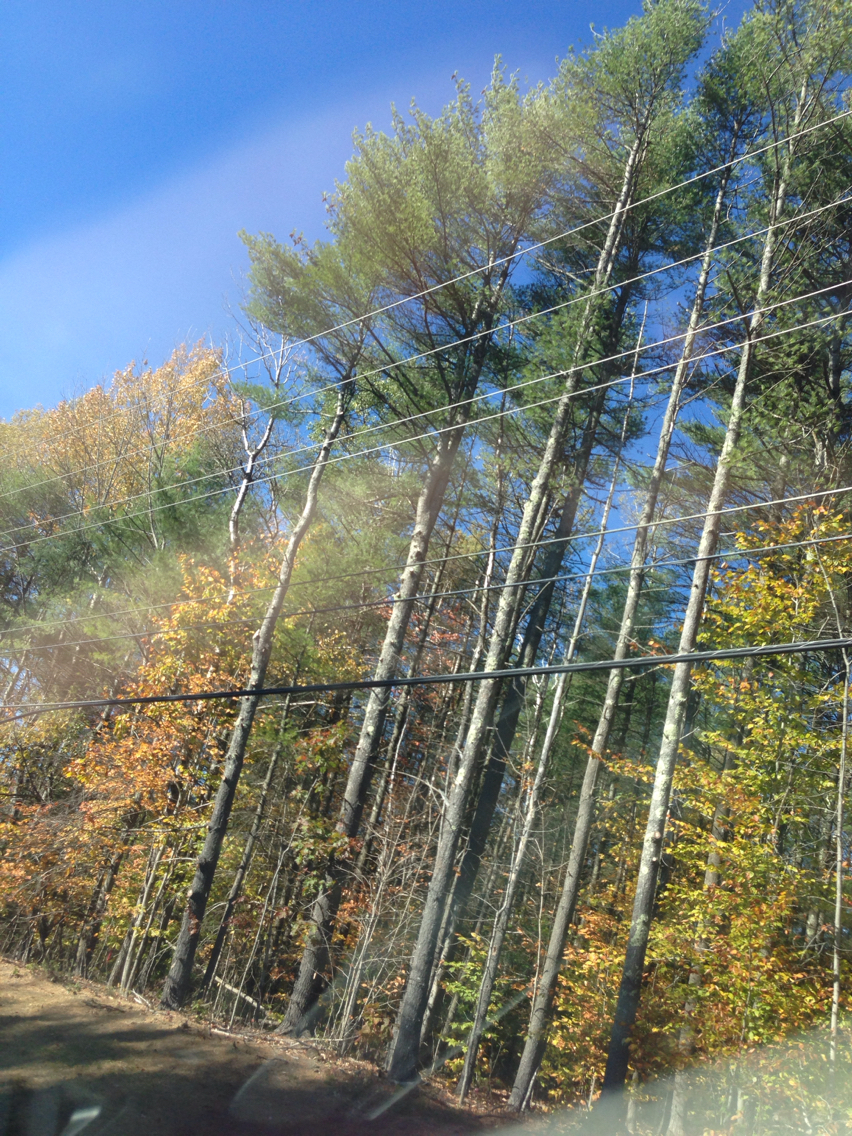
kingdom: Plantae
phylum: Tracheophyta
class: Pinopsida
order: Pinales
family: Pinaceae
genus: Pinus
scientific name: Pinus strobus
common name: Weymouth pine
